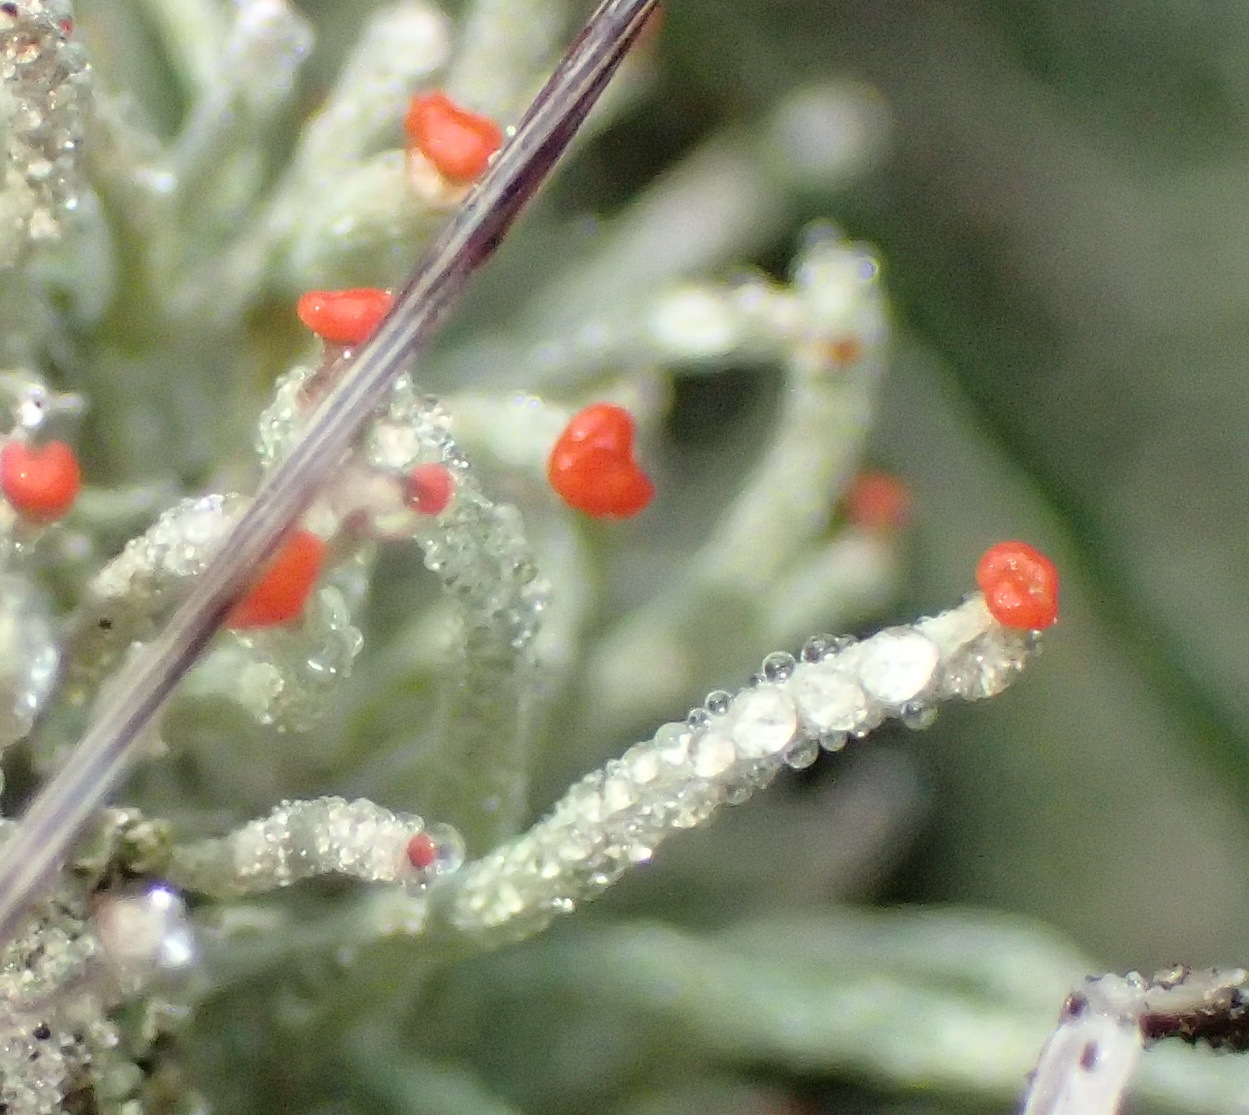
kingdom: Fungi
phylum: Ascomycota
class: Lecanoromycetes
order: Lecanorales
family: Cladoniaceae
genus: Cladonia
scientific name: Cladonia macilenta
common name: Lipstick powderhorn
